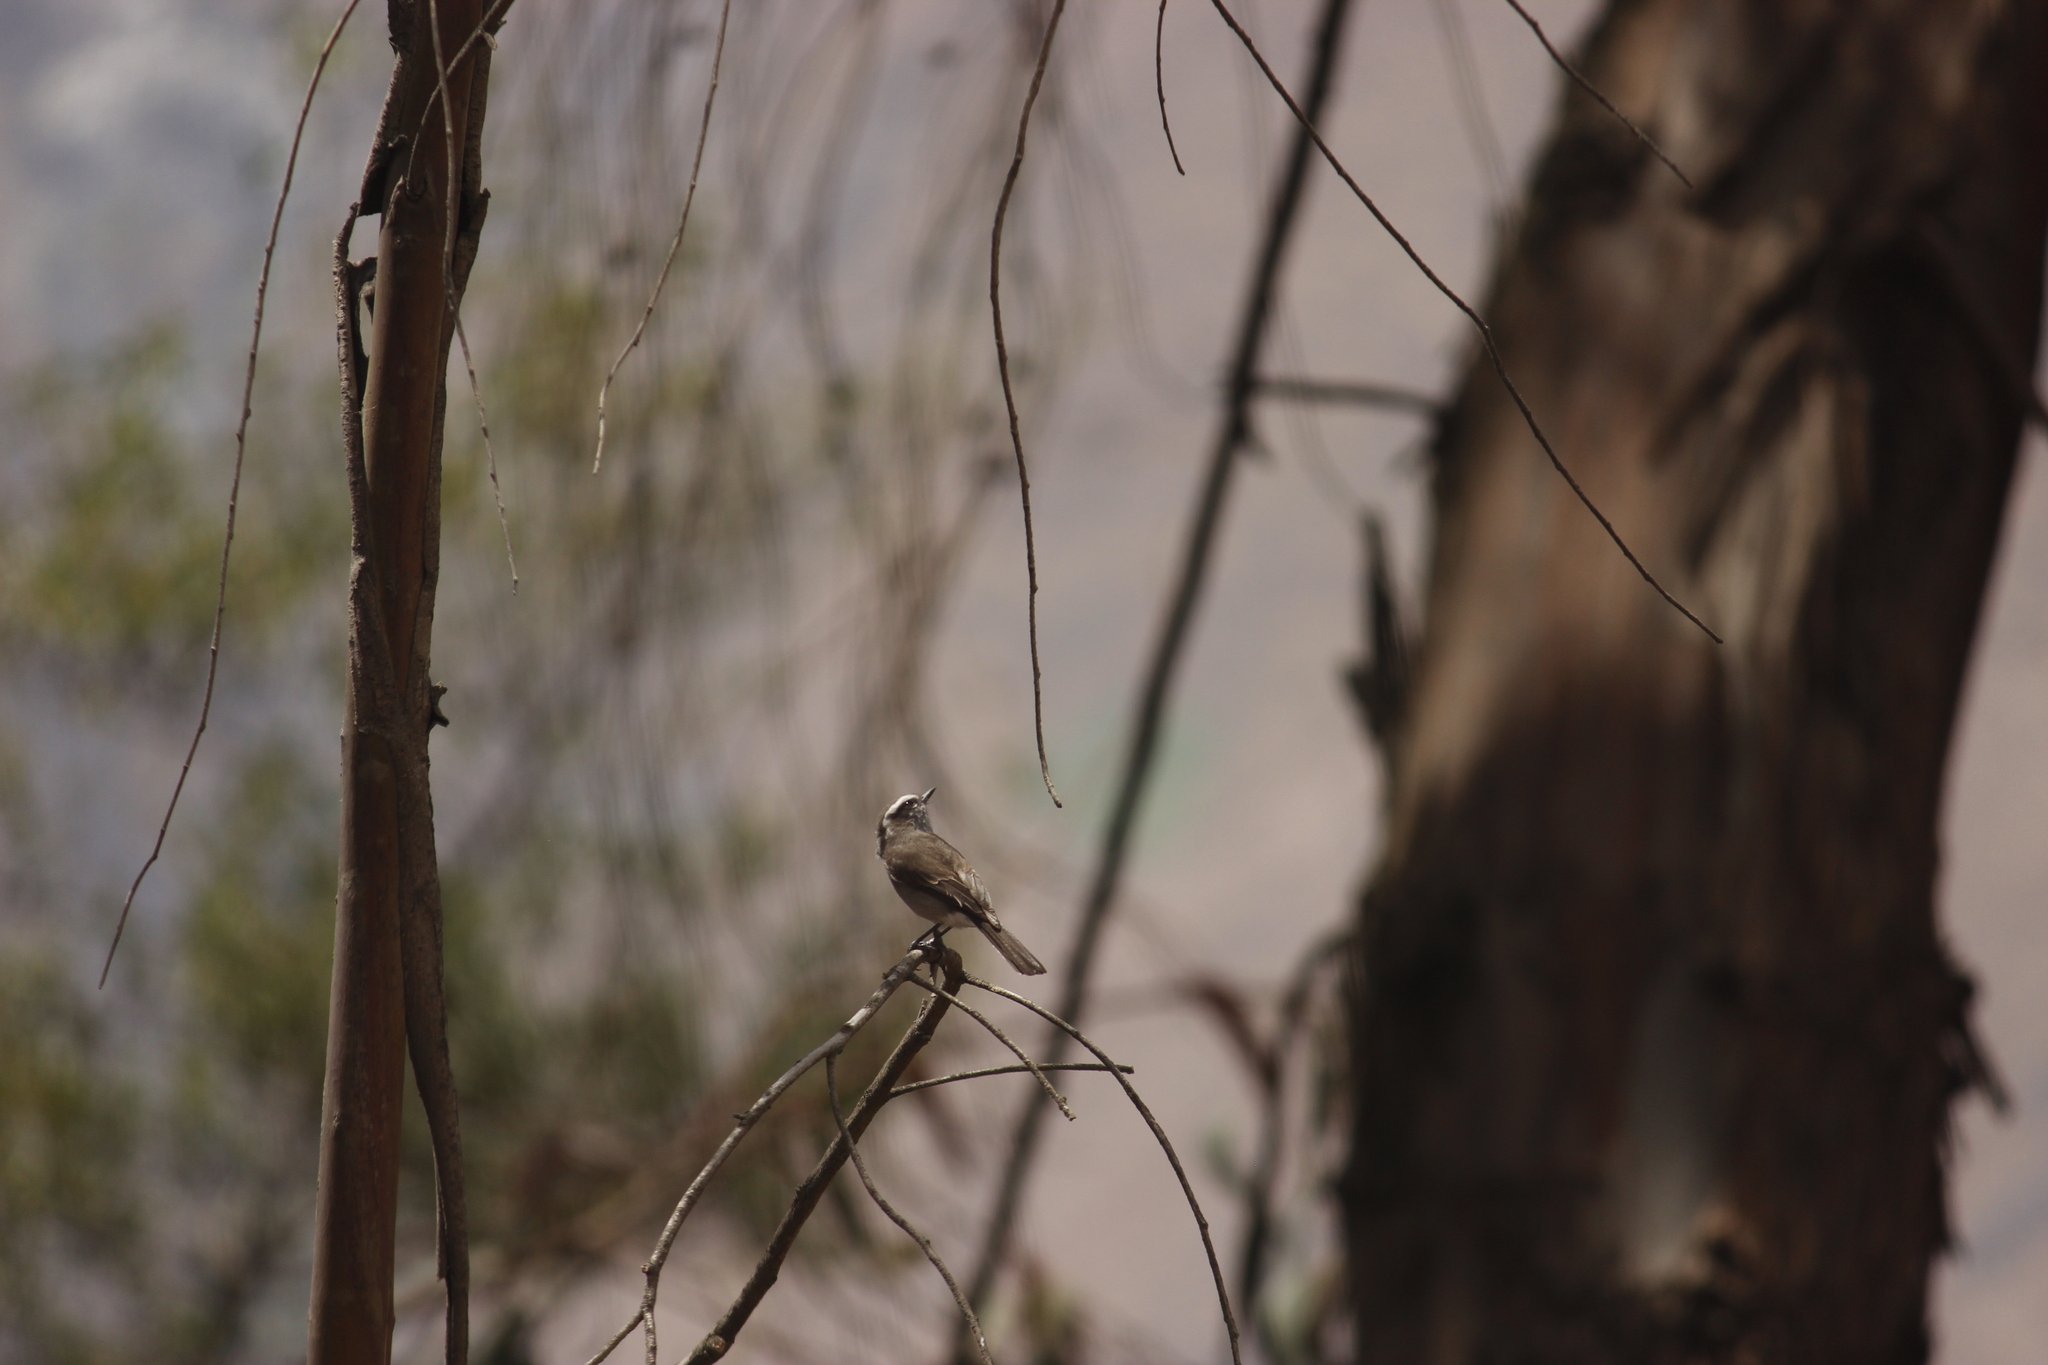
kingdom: Animalia
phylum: Chordata
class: Aves
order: Passeriformes
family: Tyrannidae
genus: Ochthoeca
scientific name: Ochthoeca leucophrys
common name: White-browed chat-tyrant
